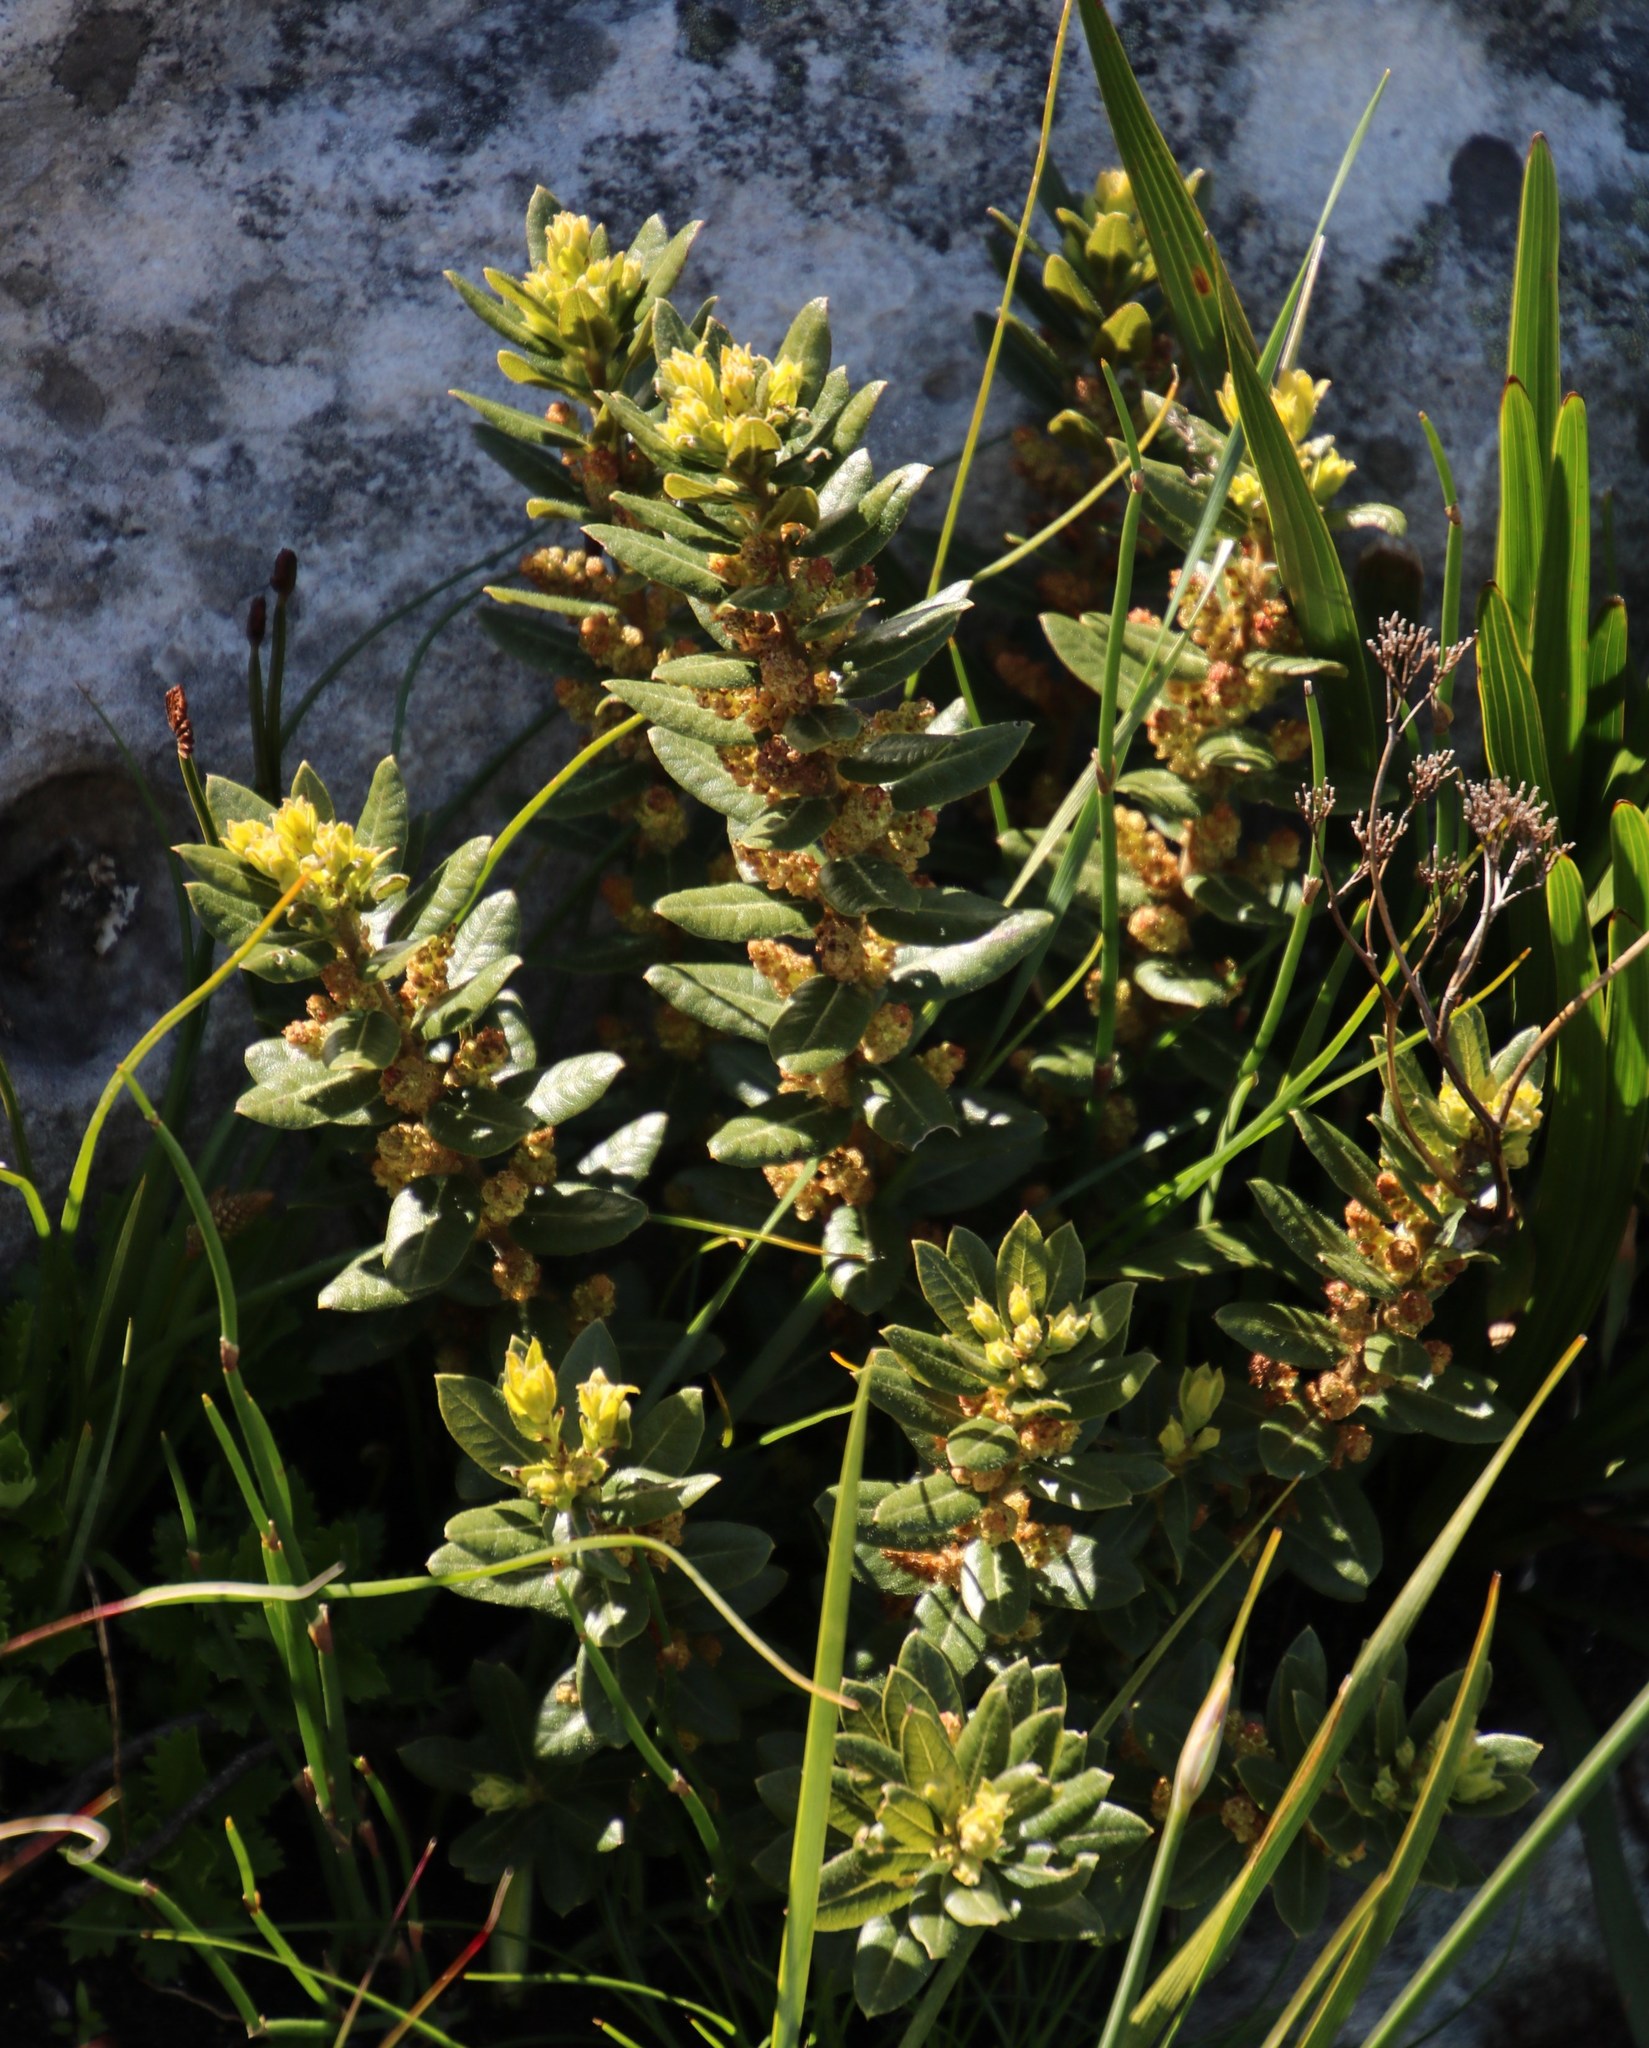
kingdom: Plantae
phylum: Tracheophyta
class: Magnoliopsida
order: Fagales
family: Myricaceae
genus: Morella
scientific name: Morella kraussiana
